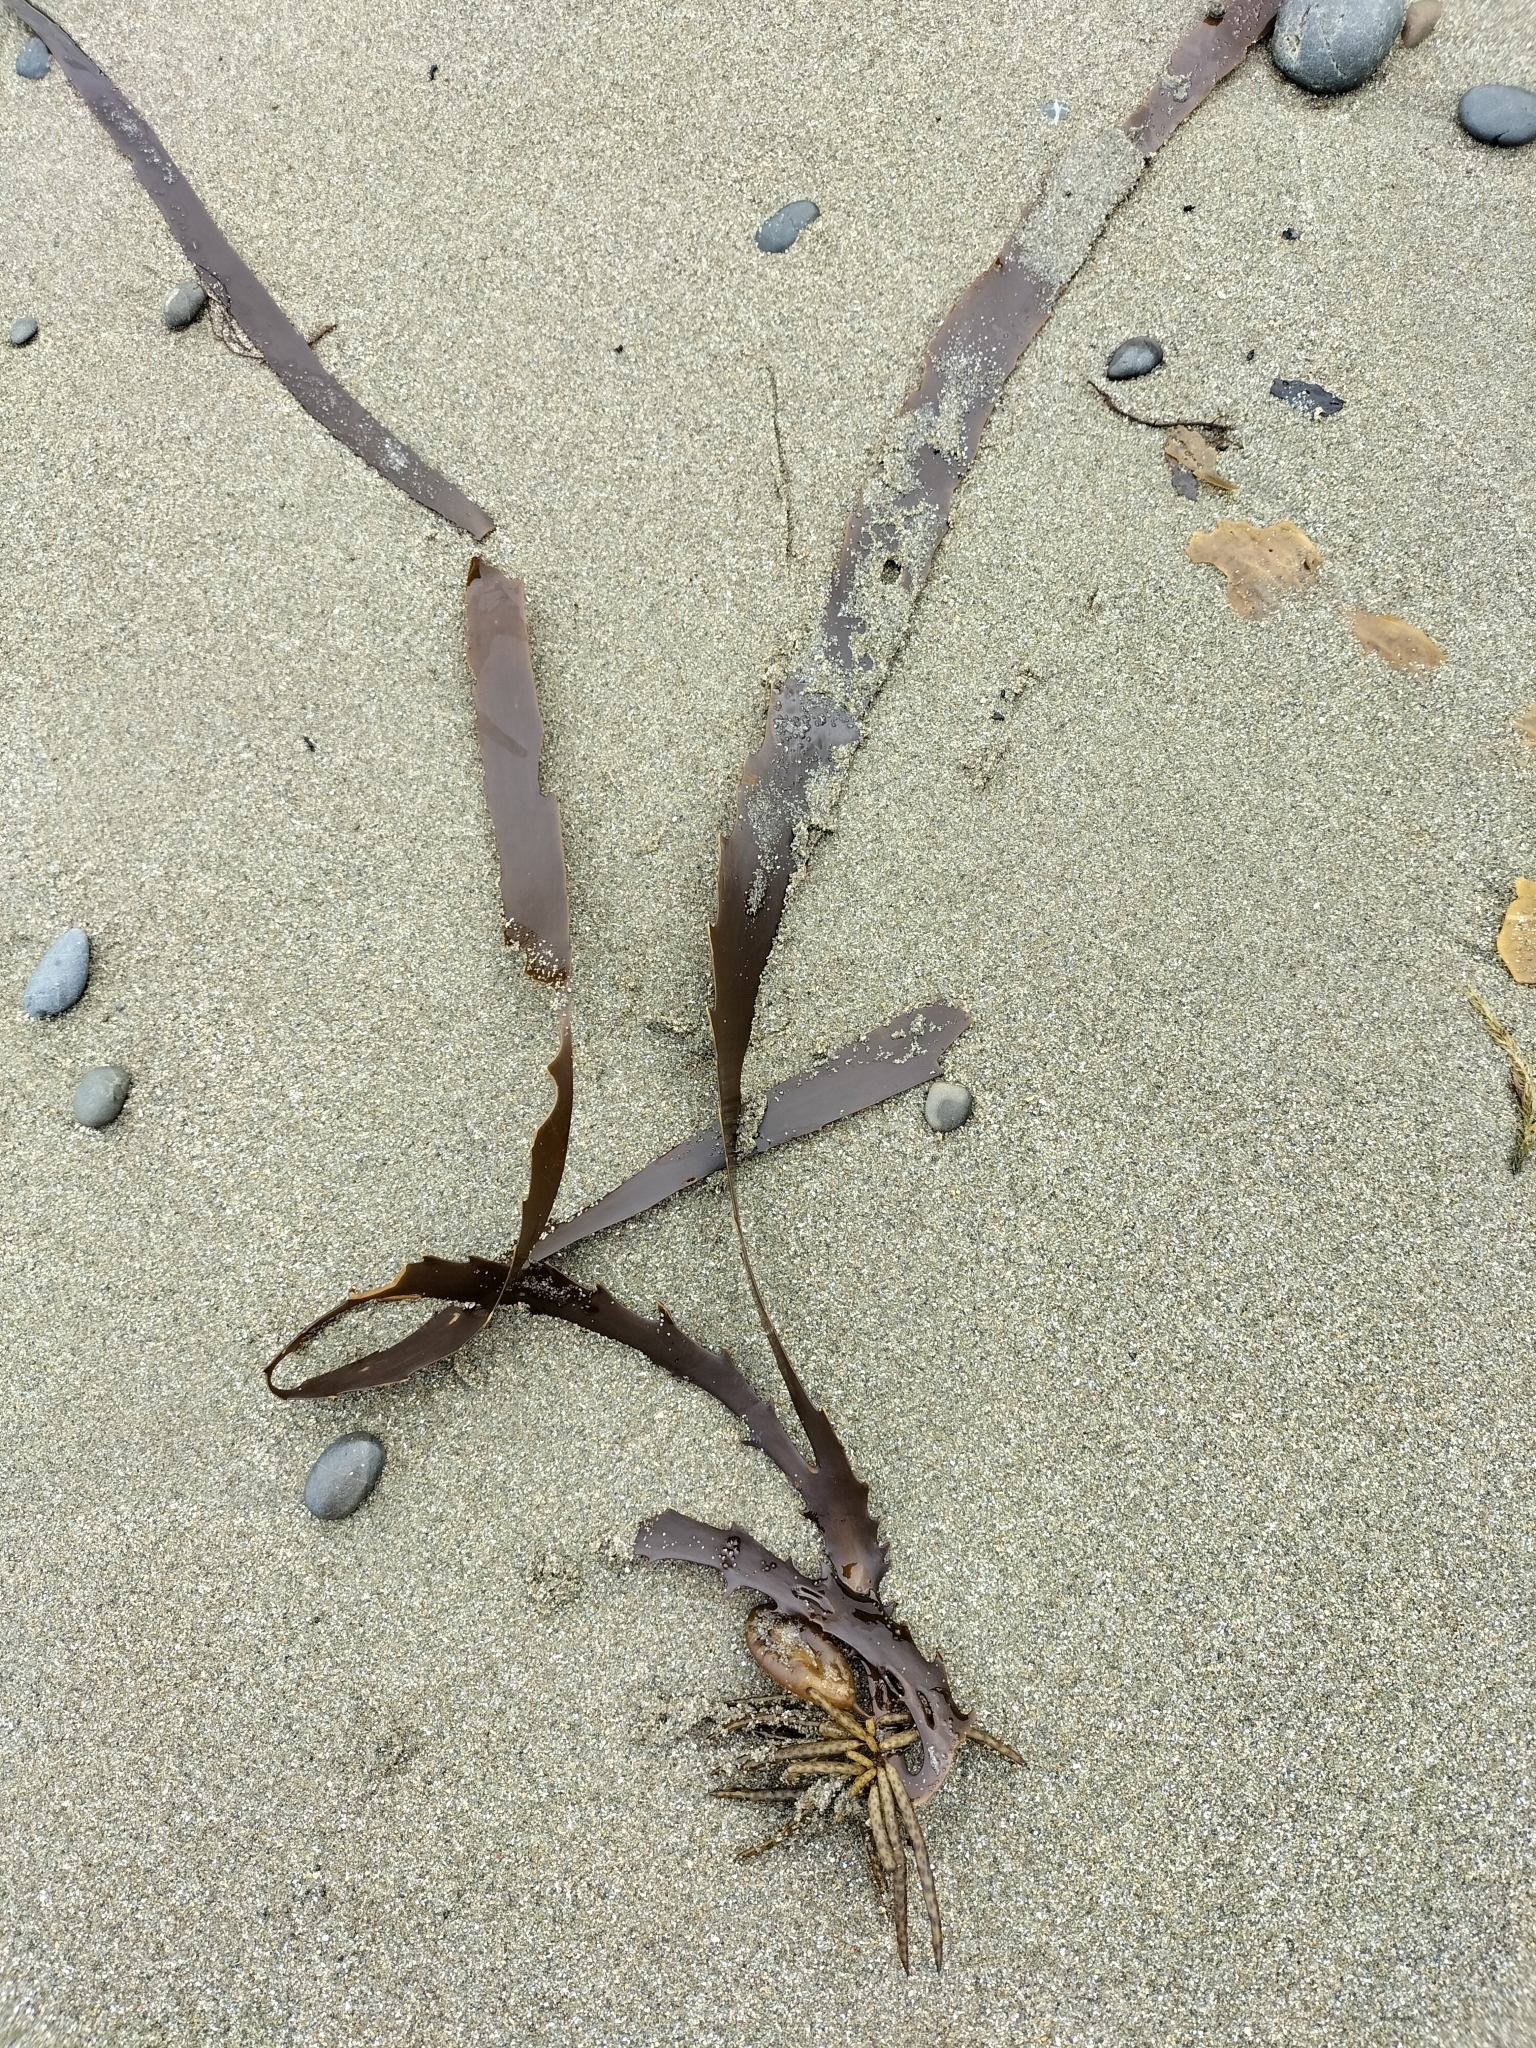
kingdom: Chromista
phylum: Ochrophyta
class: Phaeophyceae
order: Fucales
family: Seirococcaceae
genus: Marginariella
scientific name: Marginariella boryana
